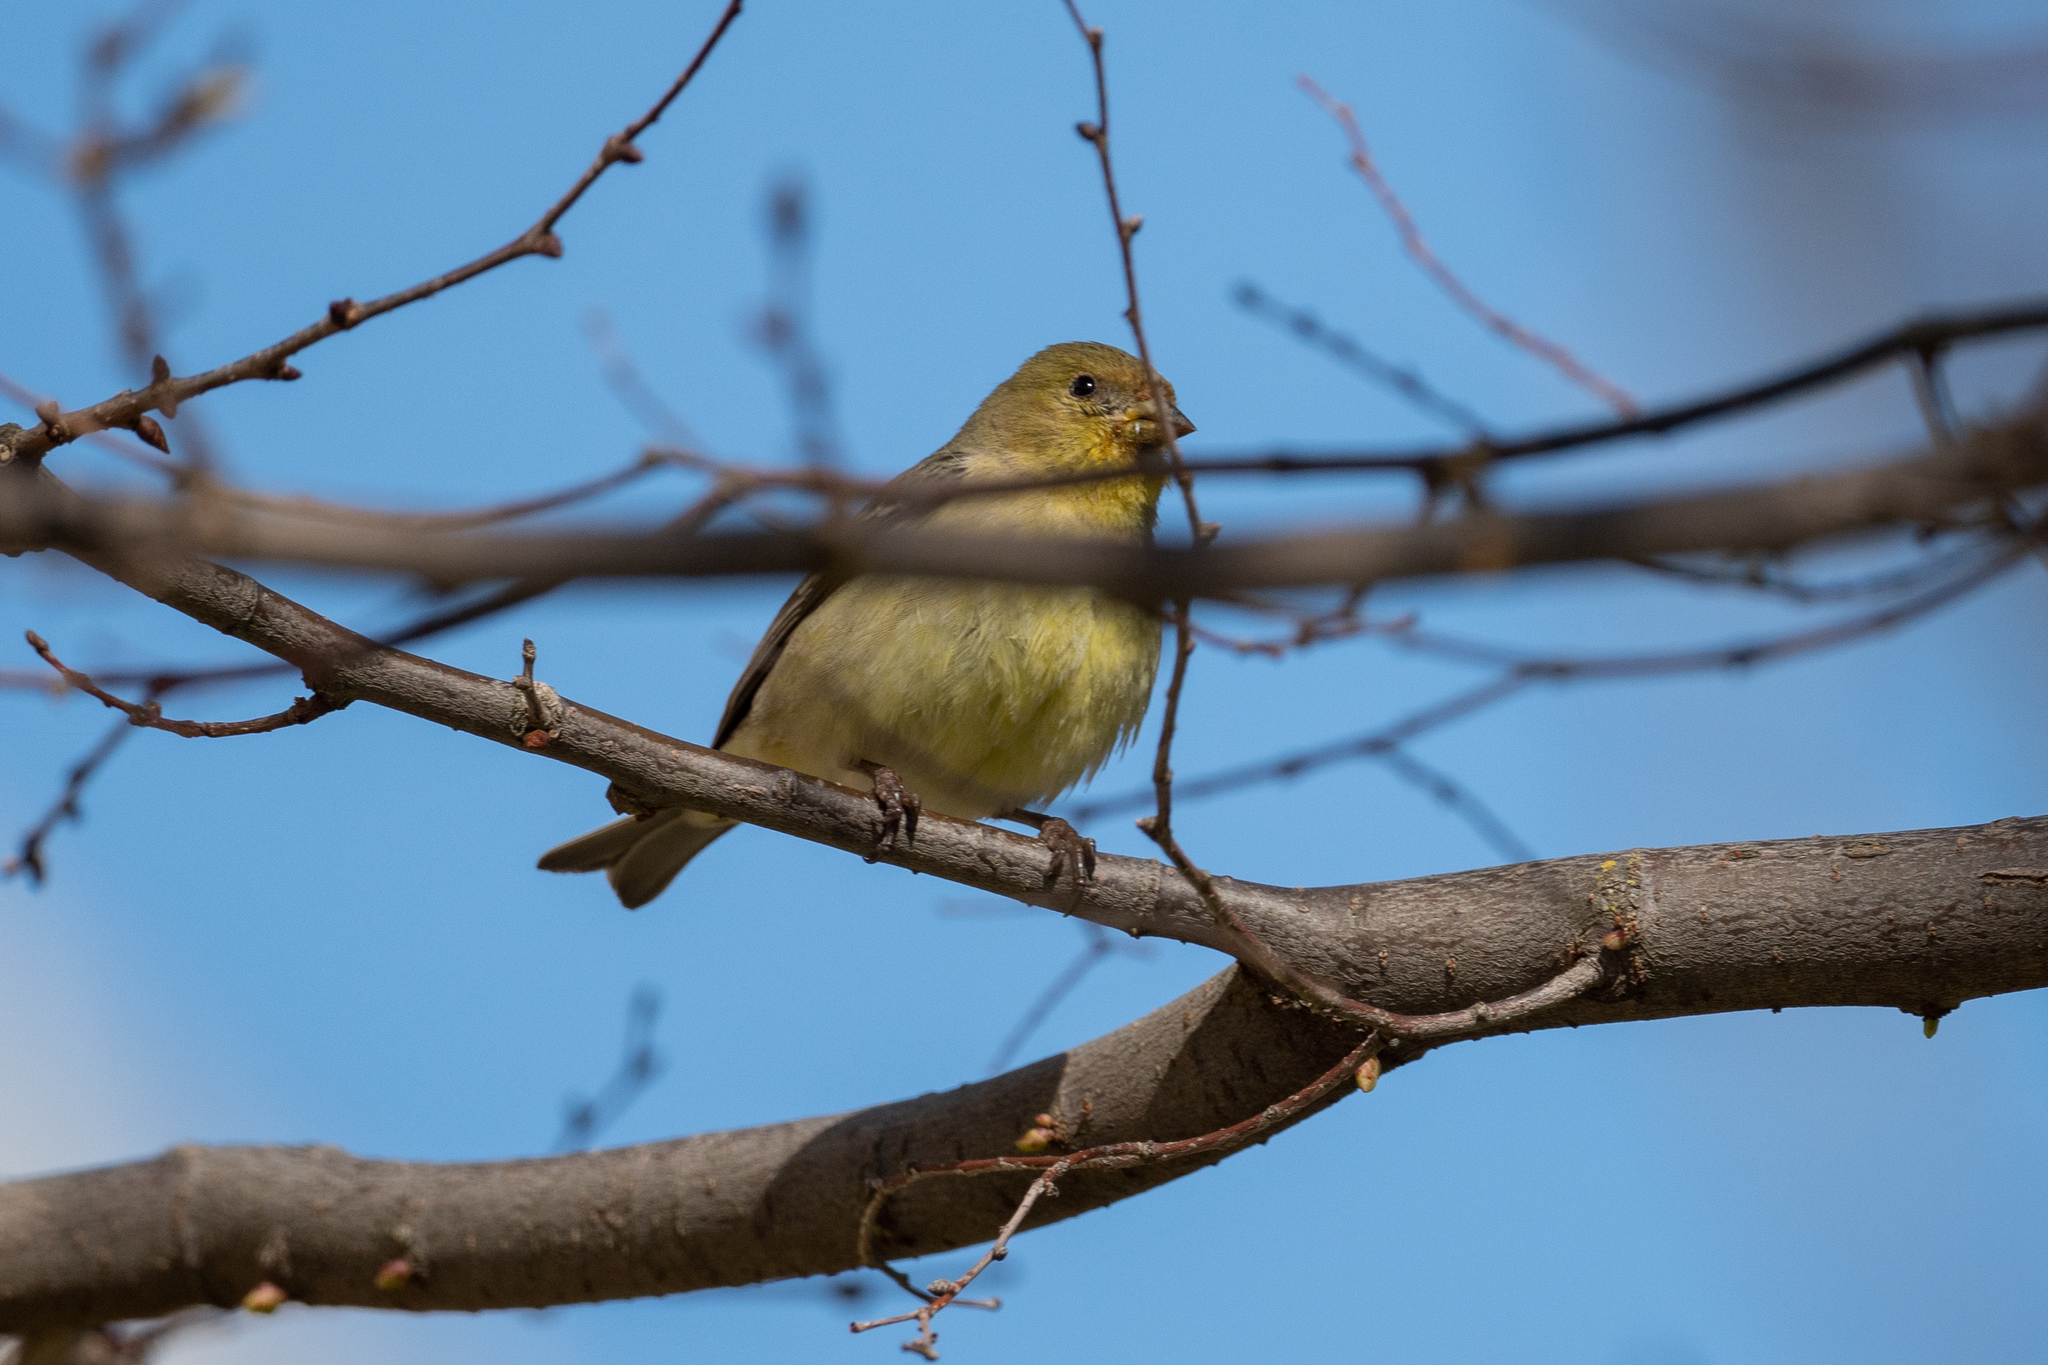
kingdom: Animalia
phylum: Chordata
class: Aves
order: Passeriformes
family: Fringillidae
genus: Spinus
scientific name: Spinus psaltria
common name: Lesser goldfinch
